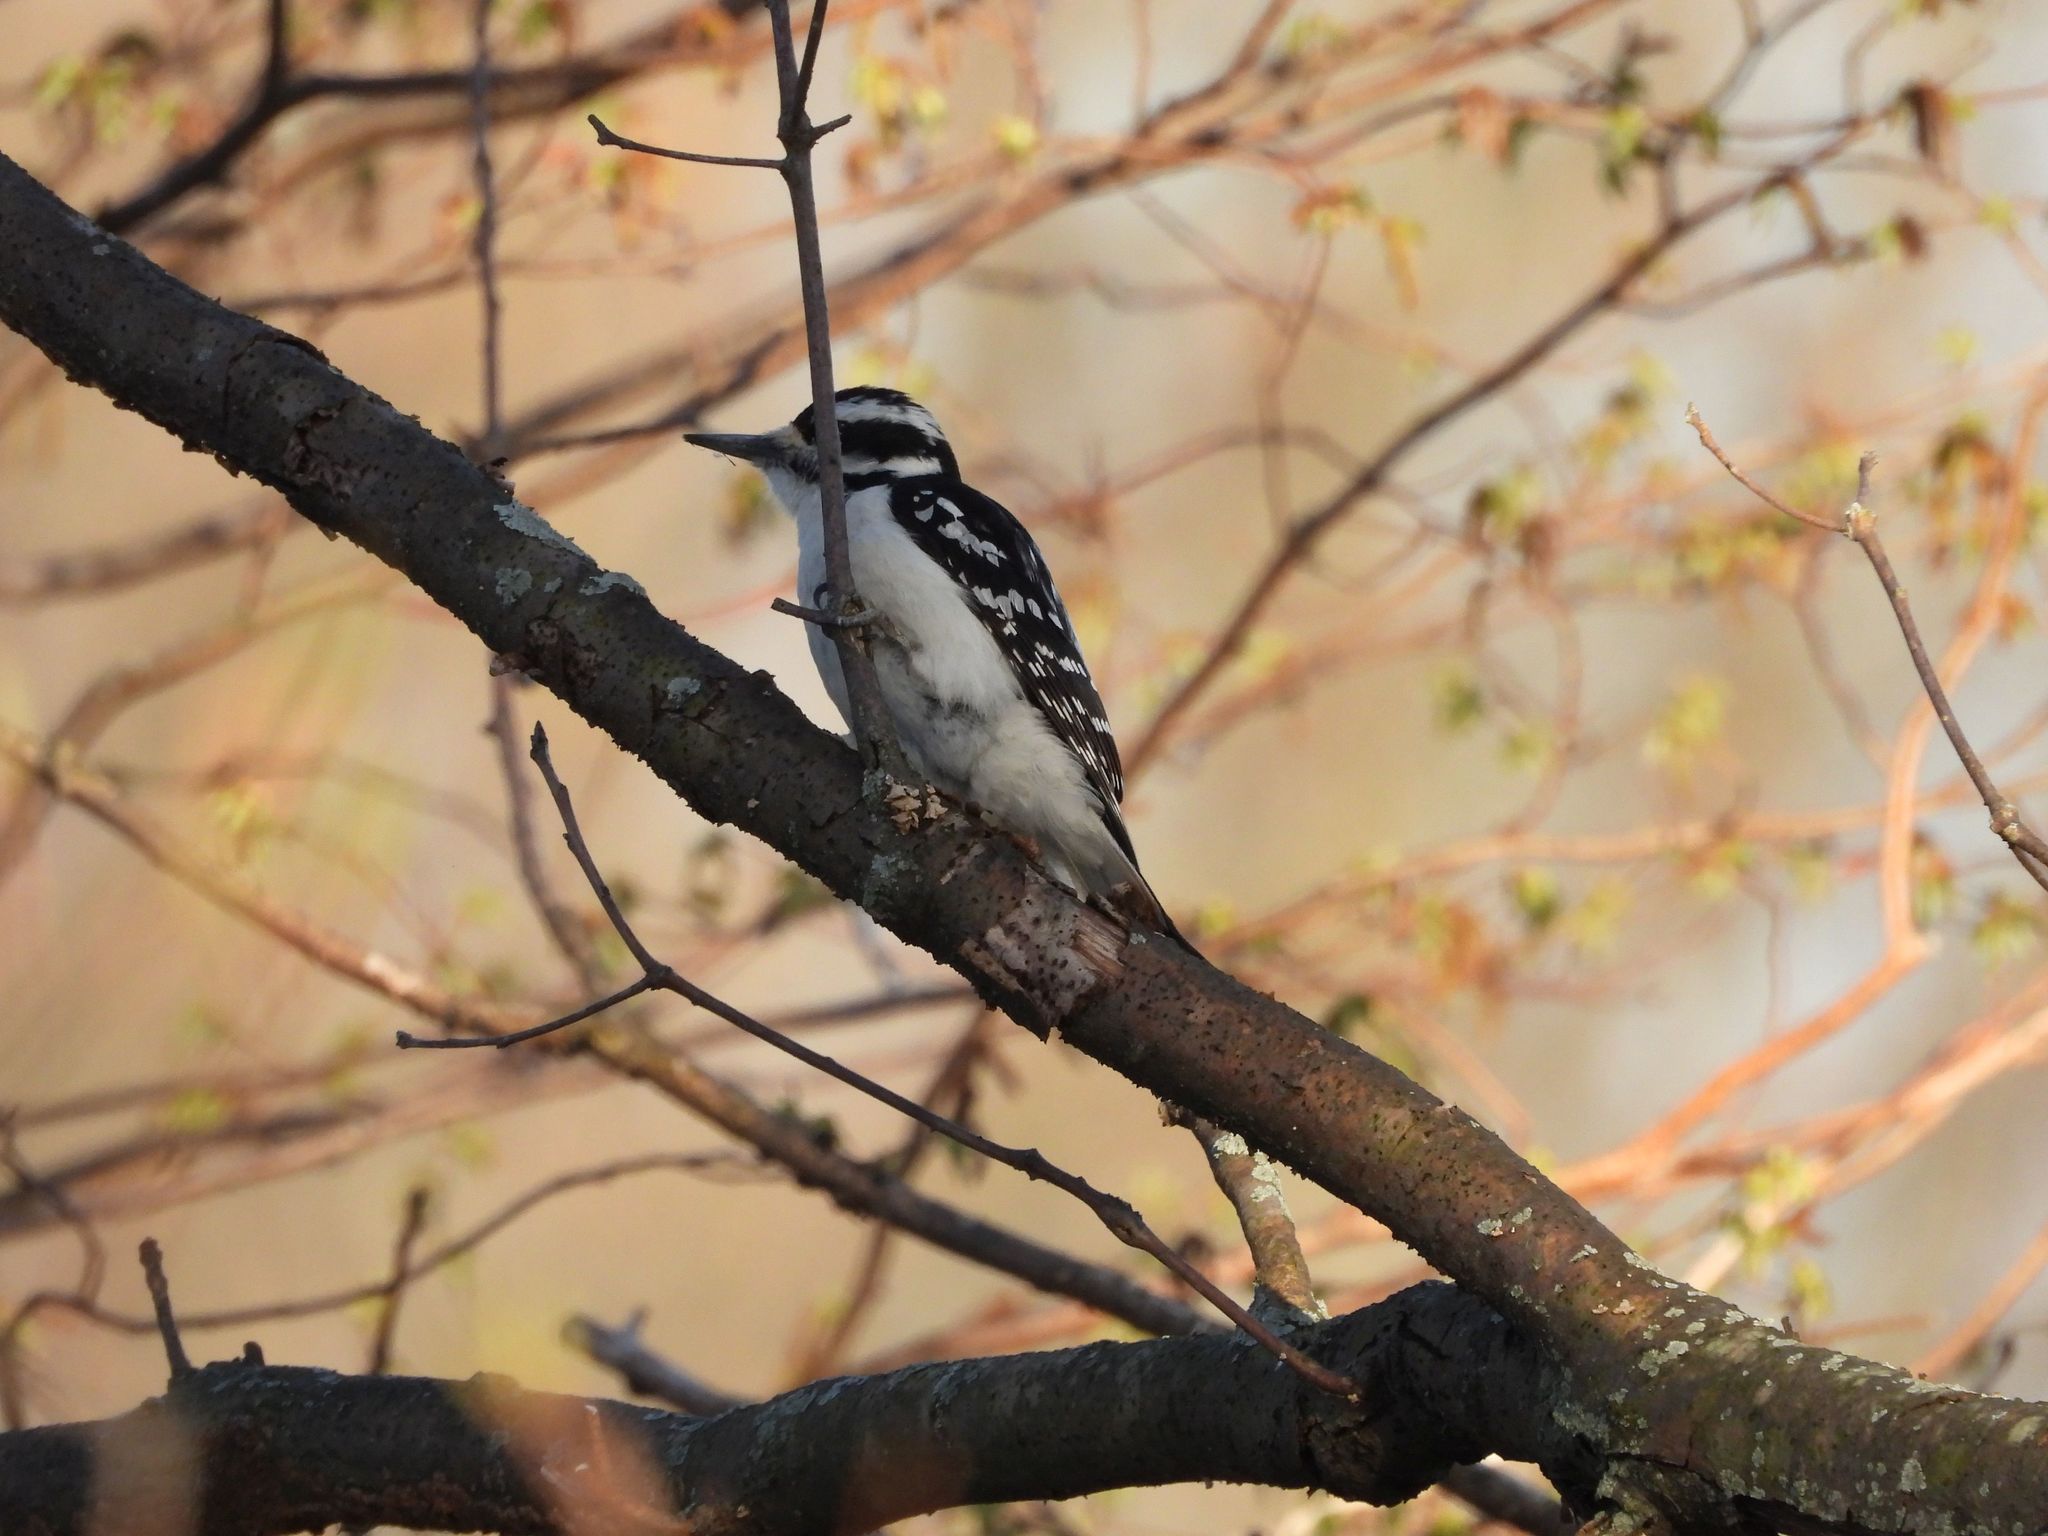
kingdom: Animalia
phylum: Chordata
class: Aves
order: Piciformes
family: Picidae
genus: Leuconotopicus
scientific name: Leuconotopicus villosus
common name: Hairy woodpecker
